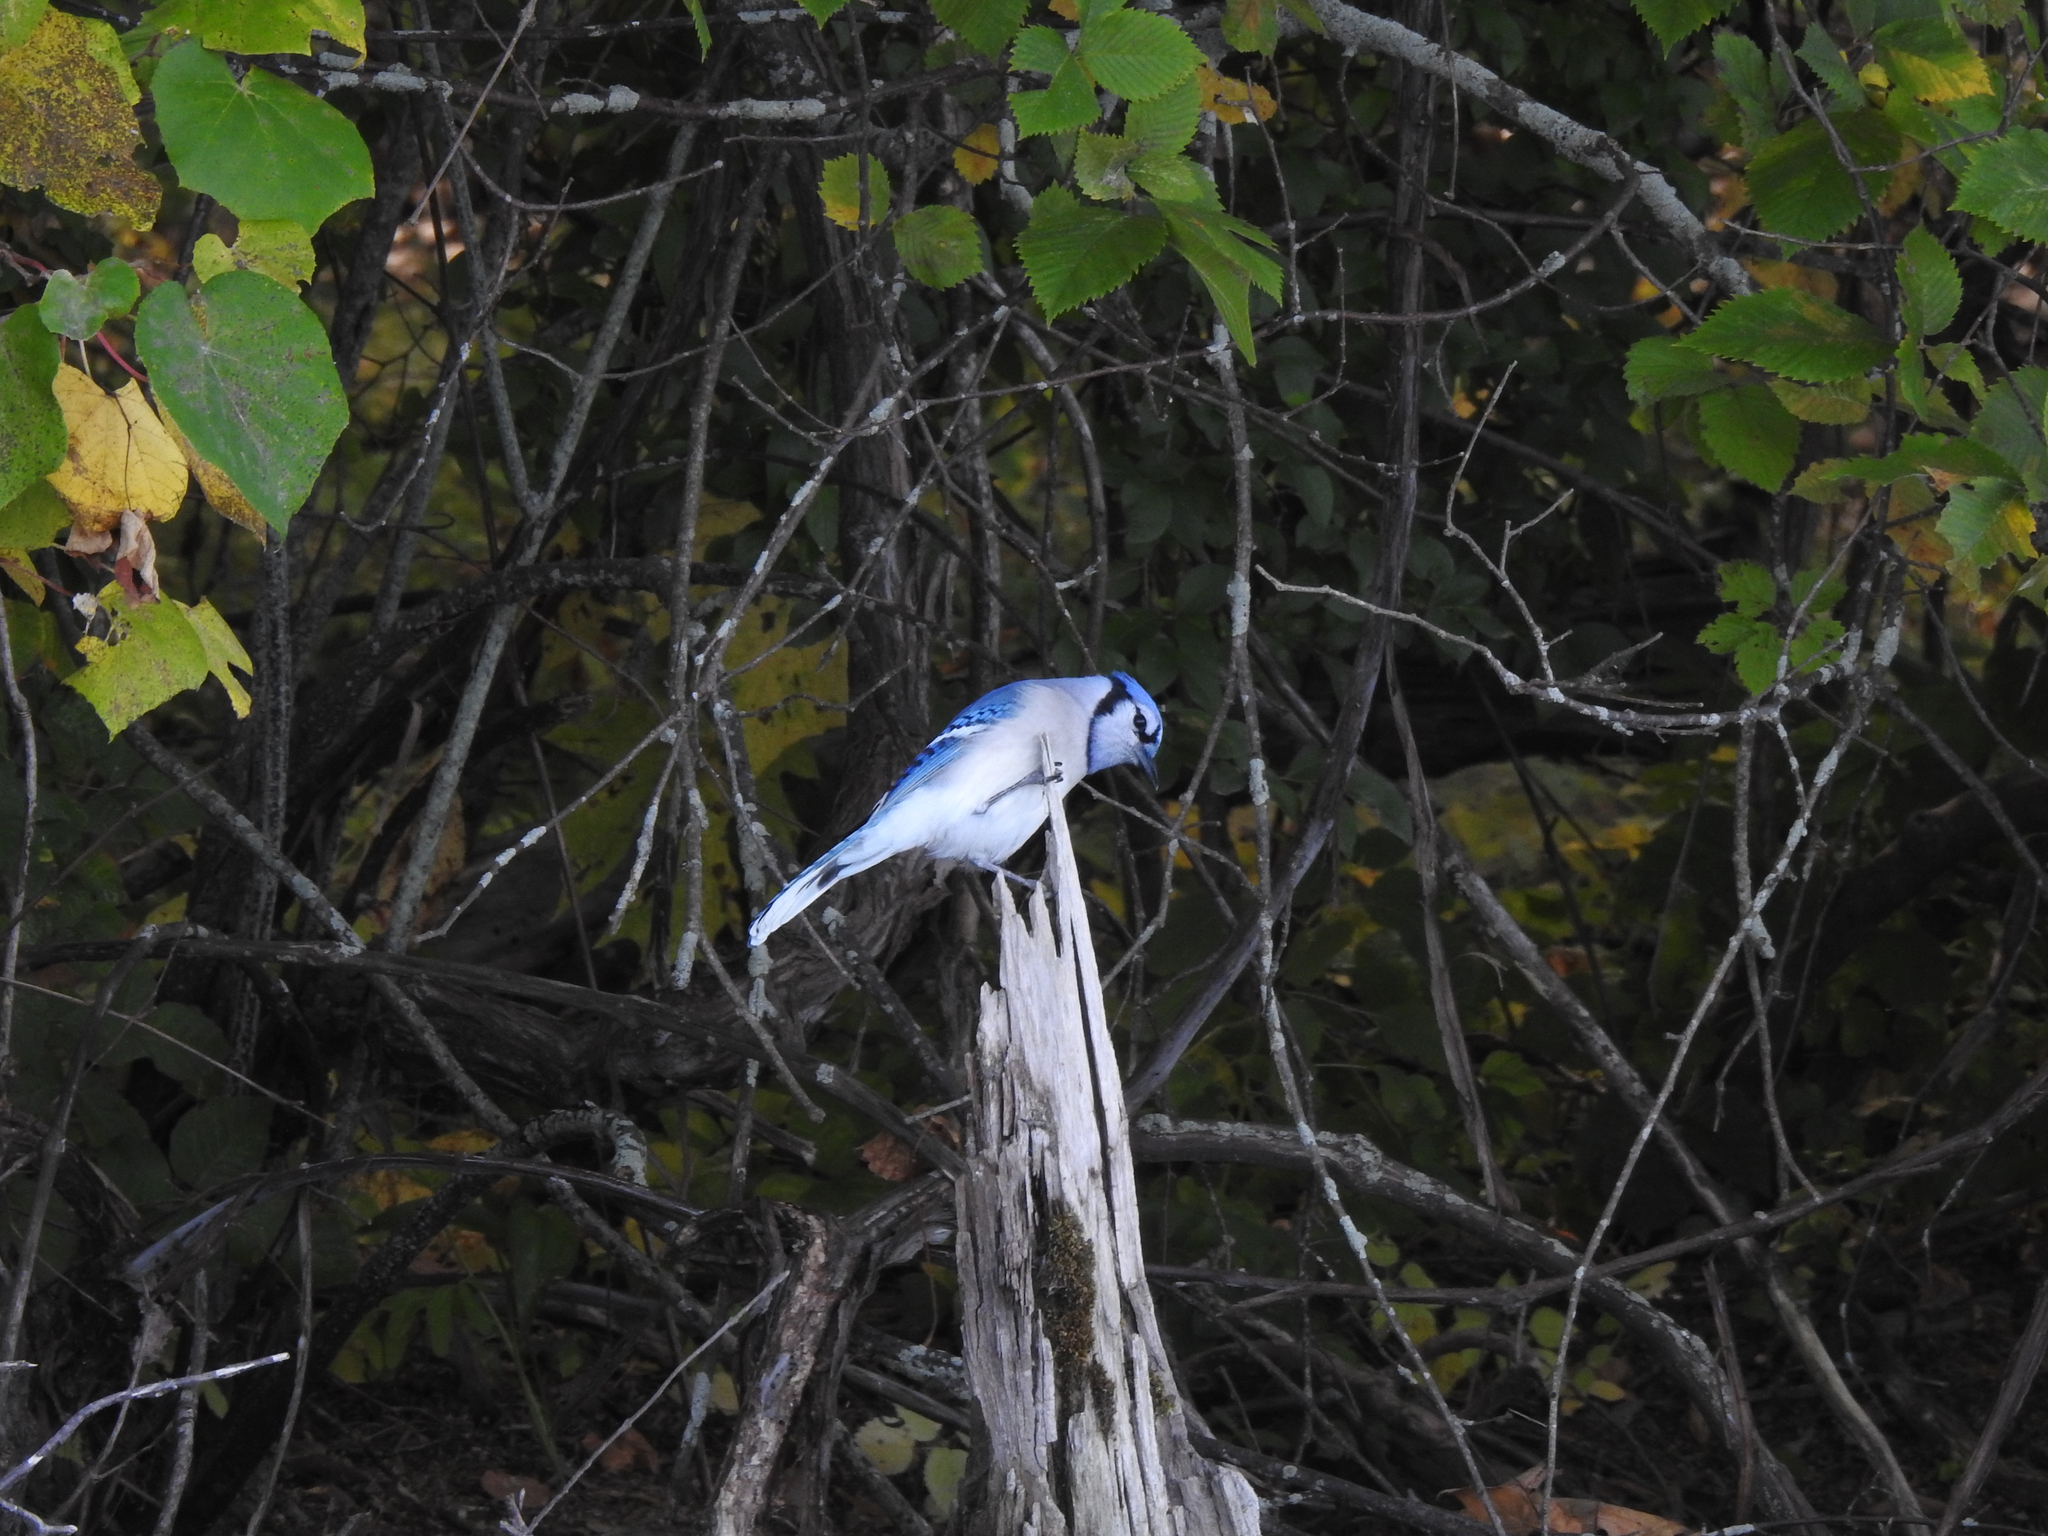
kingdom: Animalia
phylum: Chordata
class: Aves
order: Passeriformes
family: Corvidae
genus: Cyanocitta
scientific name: Cyanocitta cristata
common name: Blue jay
